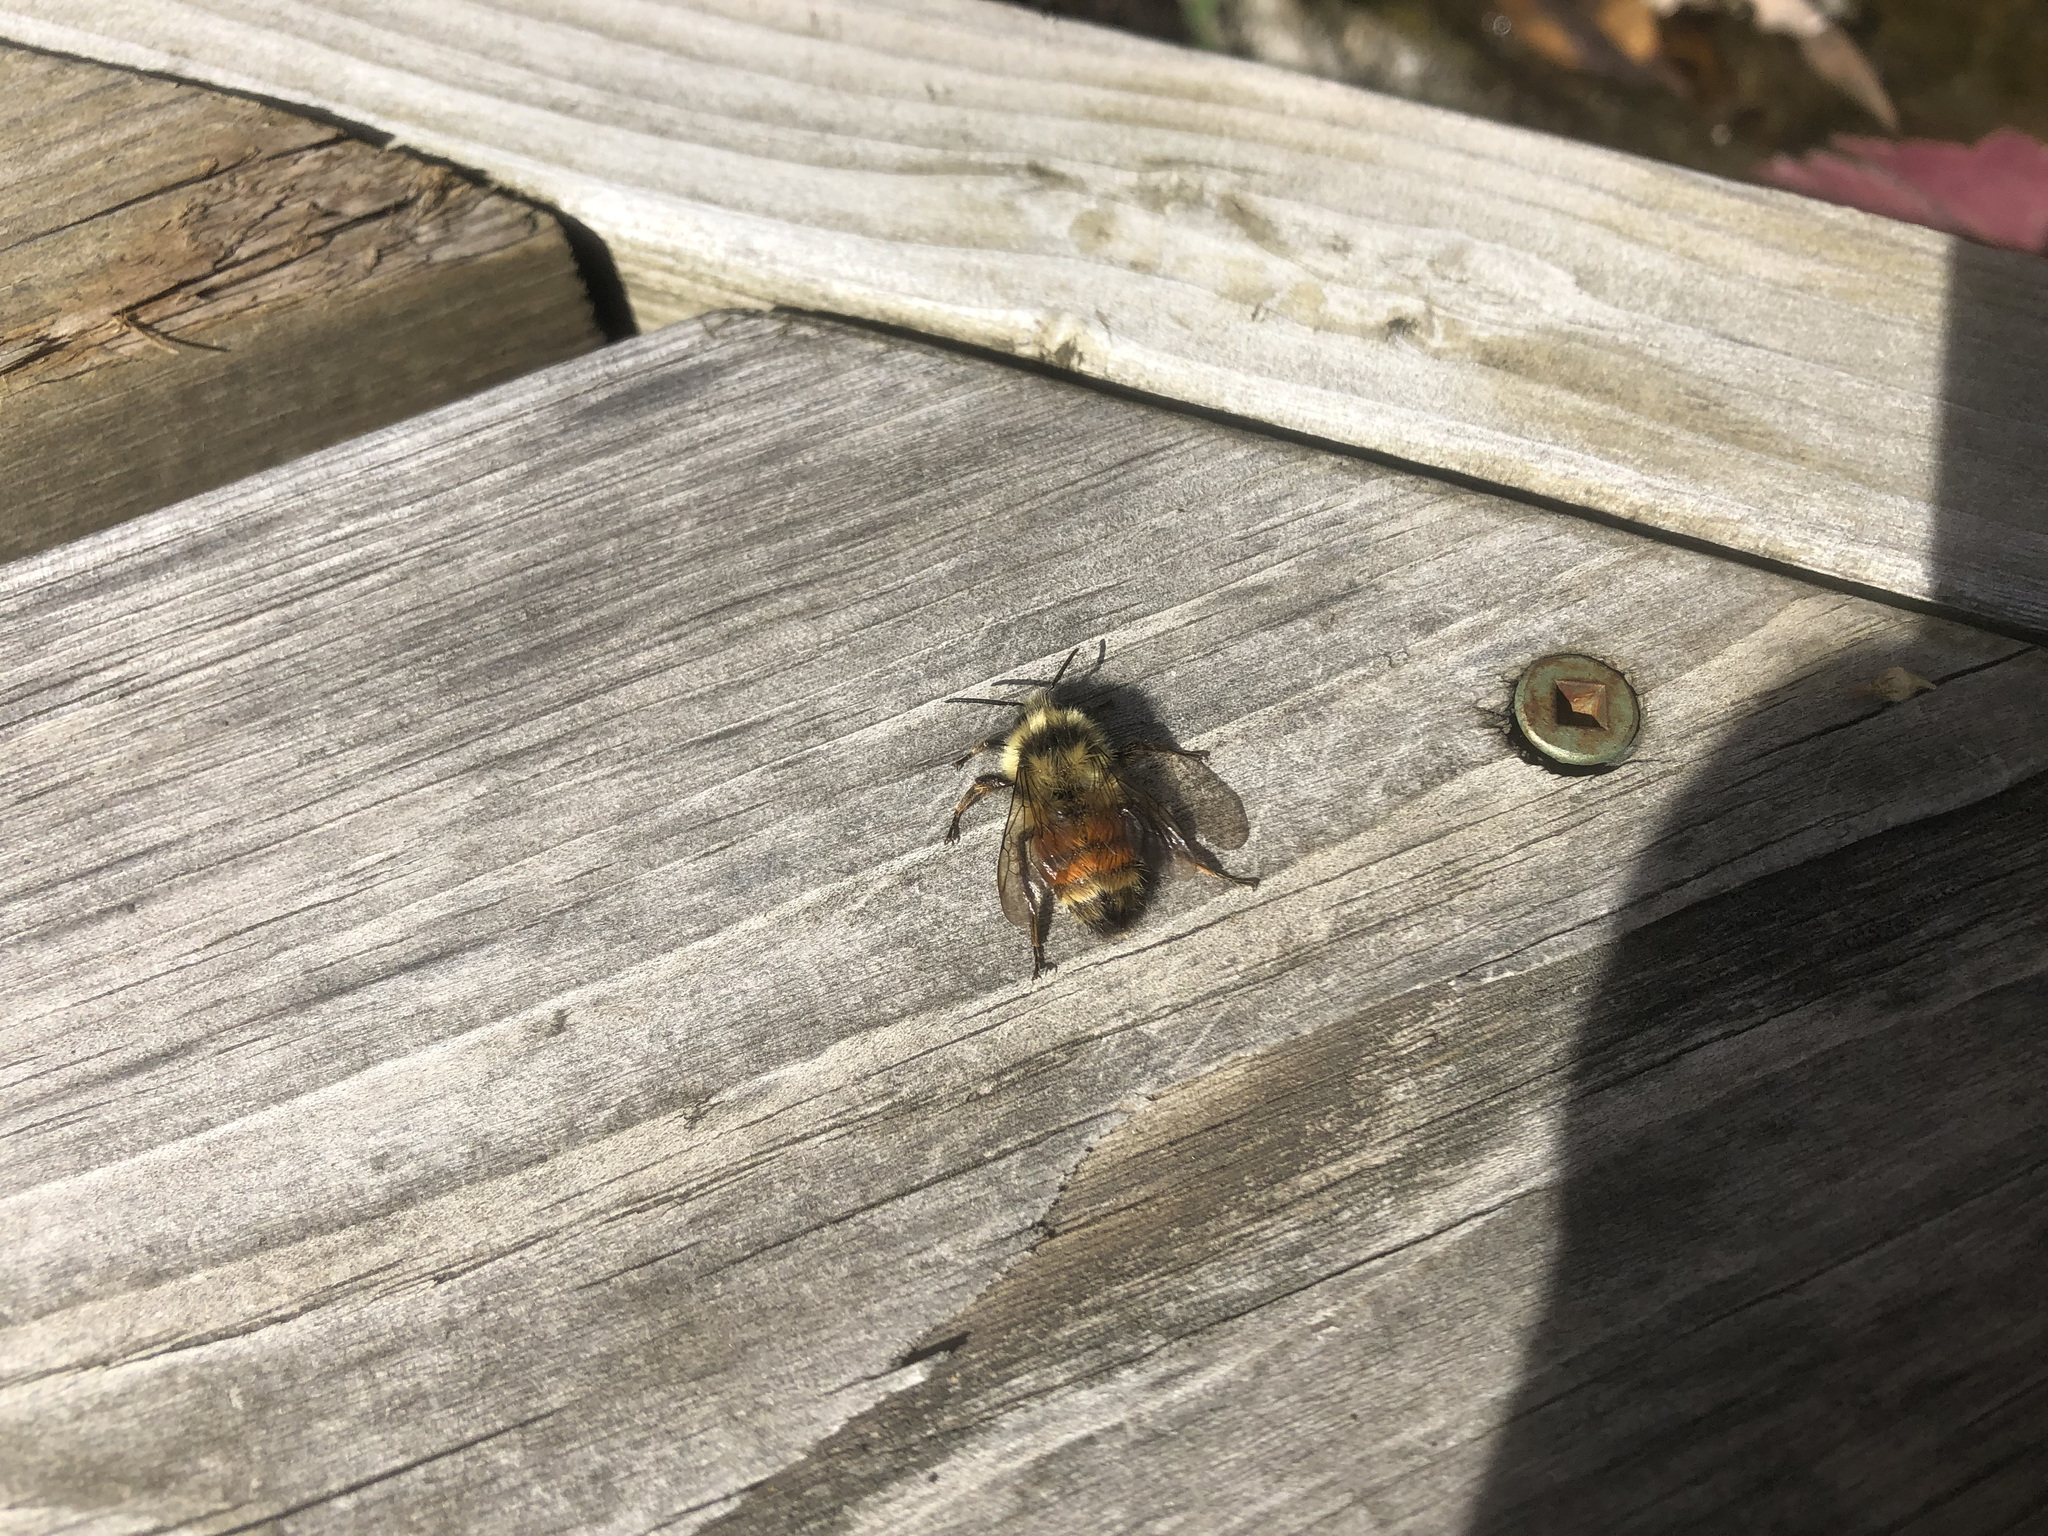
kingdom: Animalia
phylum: Arthropoda
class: Insecta
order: Hymenoptera
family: Apidae
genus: Bombus
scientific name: Bombus ternarius
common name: Tri-colored bumble bee
